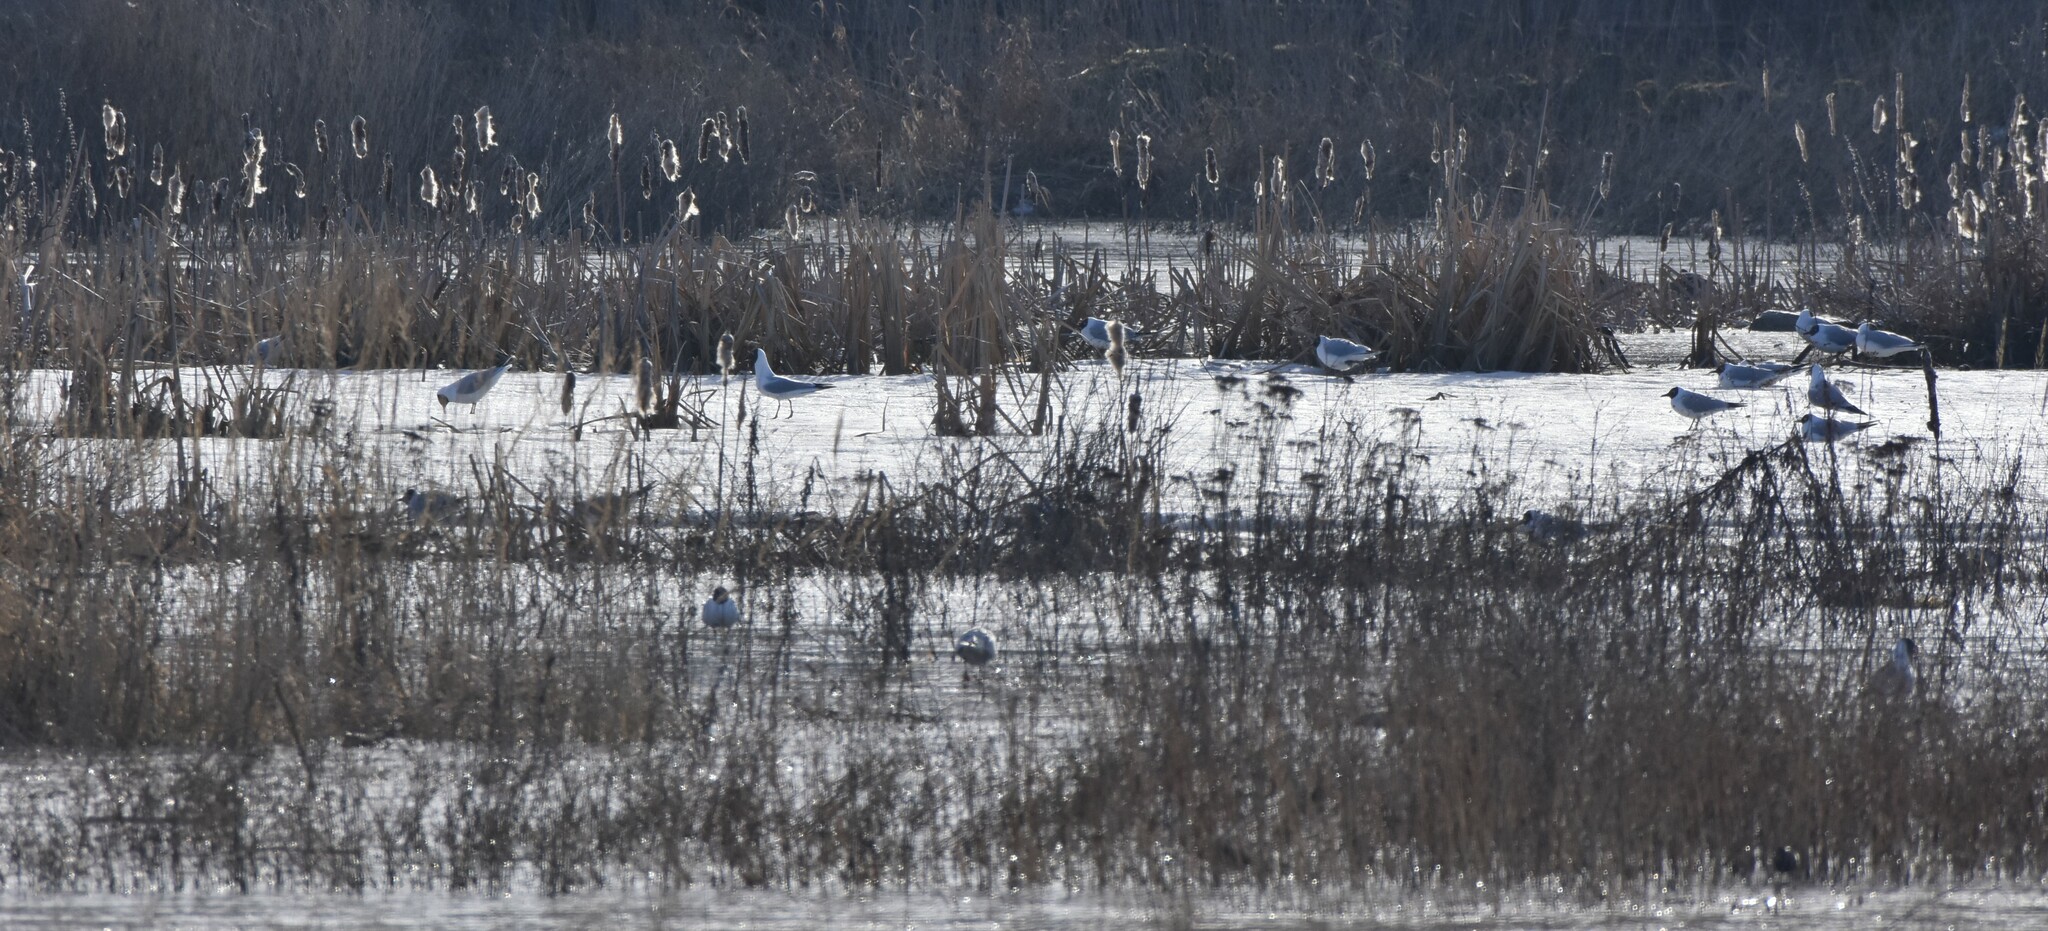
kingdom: Animalia
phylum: Chordata
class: Aves
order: Charadriiformes
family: Laridae
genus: Chroicocephalus
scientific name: Chroicocephalus ridibundus
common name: Black-headed gull
